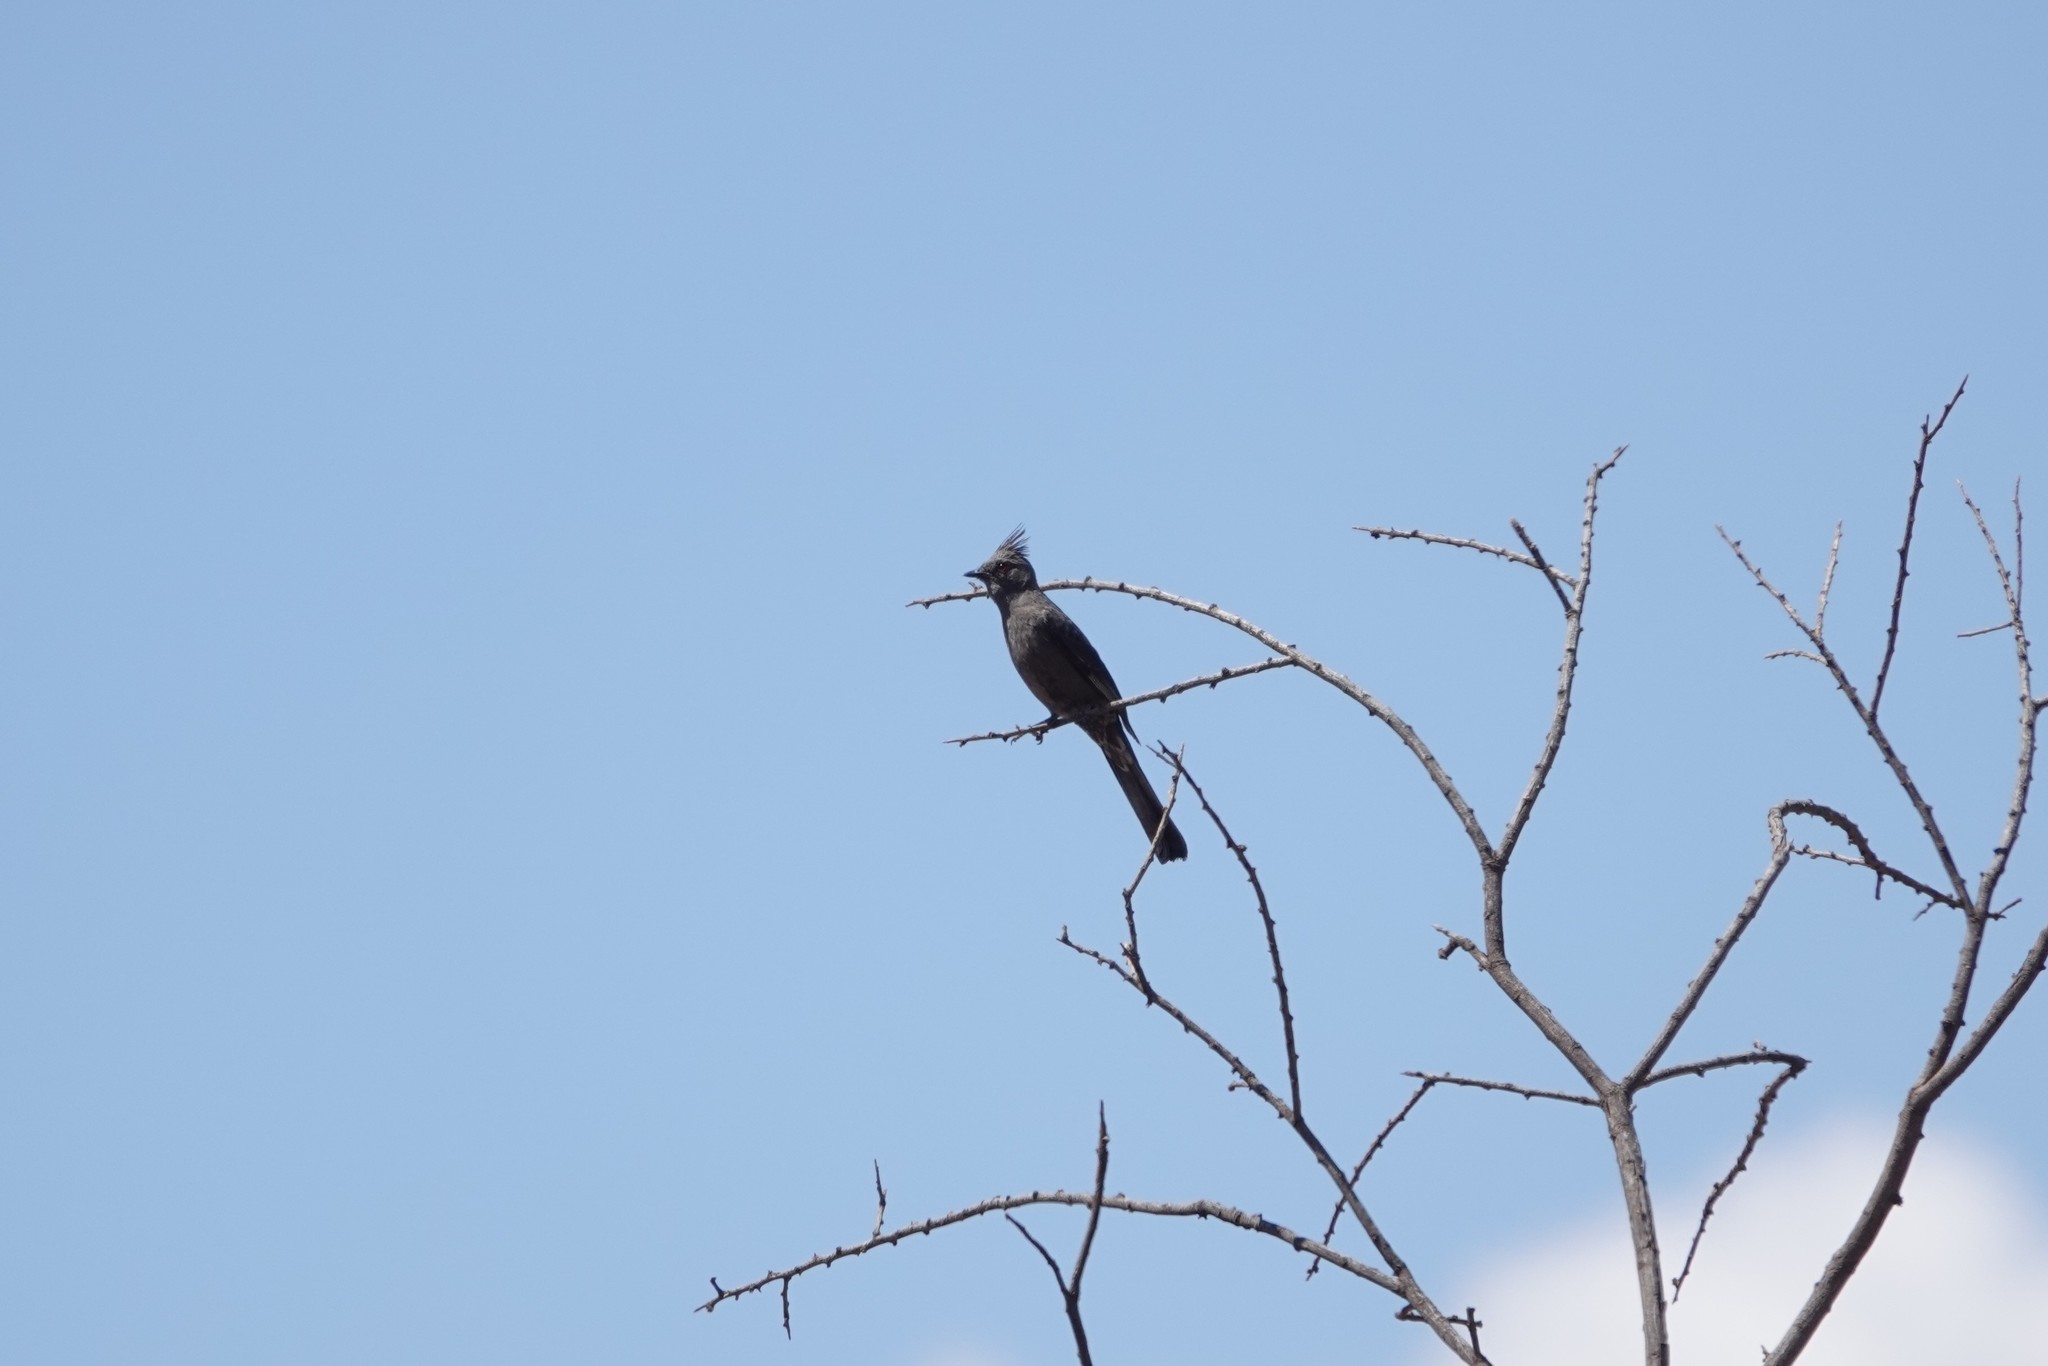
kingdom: Animalia
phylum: Chordata
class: Aves
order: Passeriformes
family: Ptilogonatidae
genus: Phainopepla
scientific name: Phainopepla nitens
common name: Phainopepla
